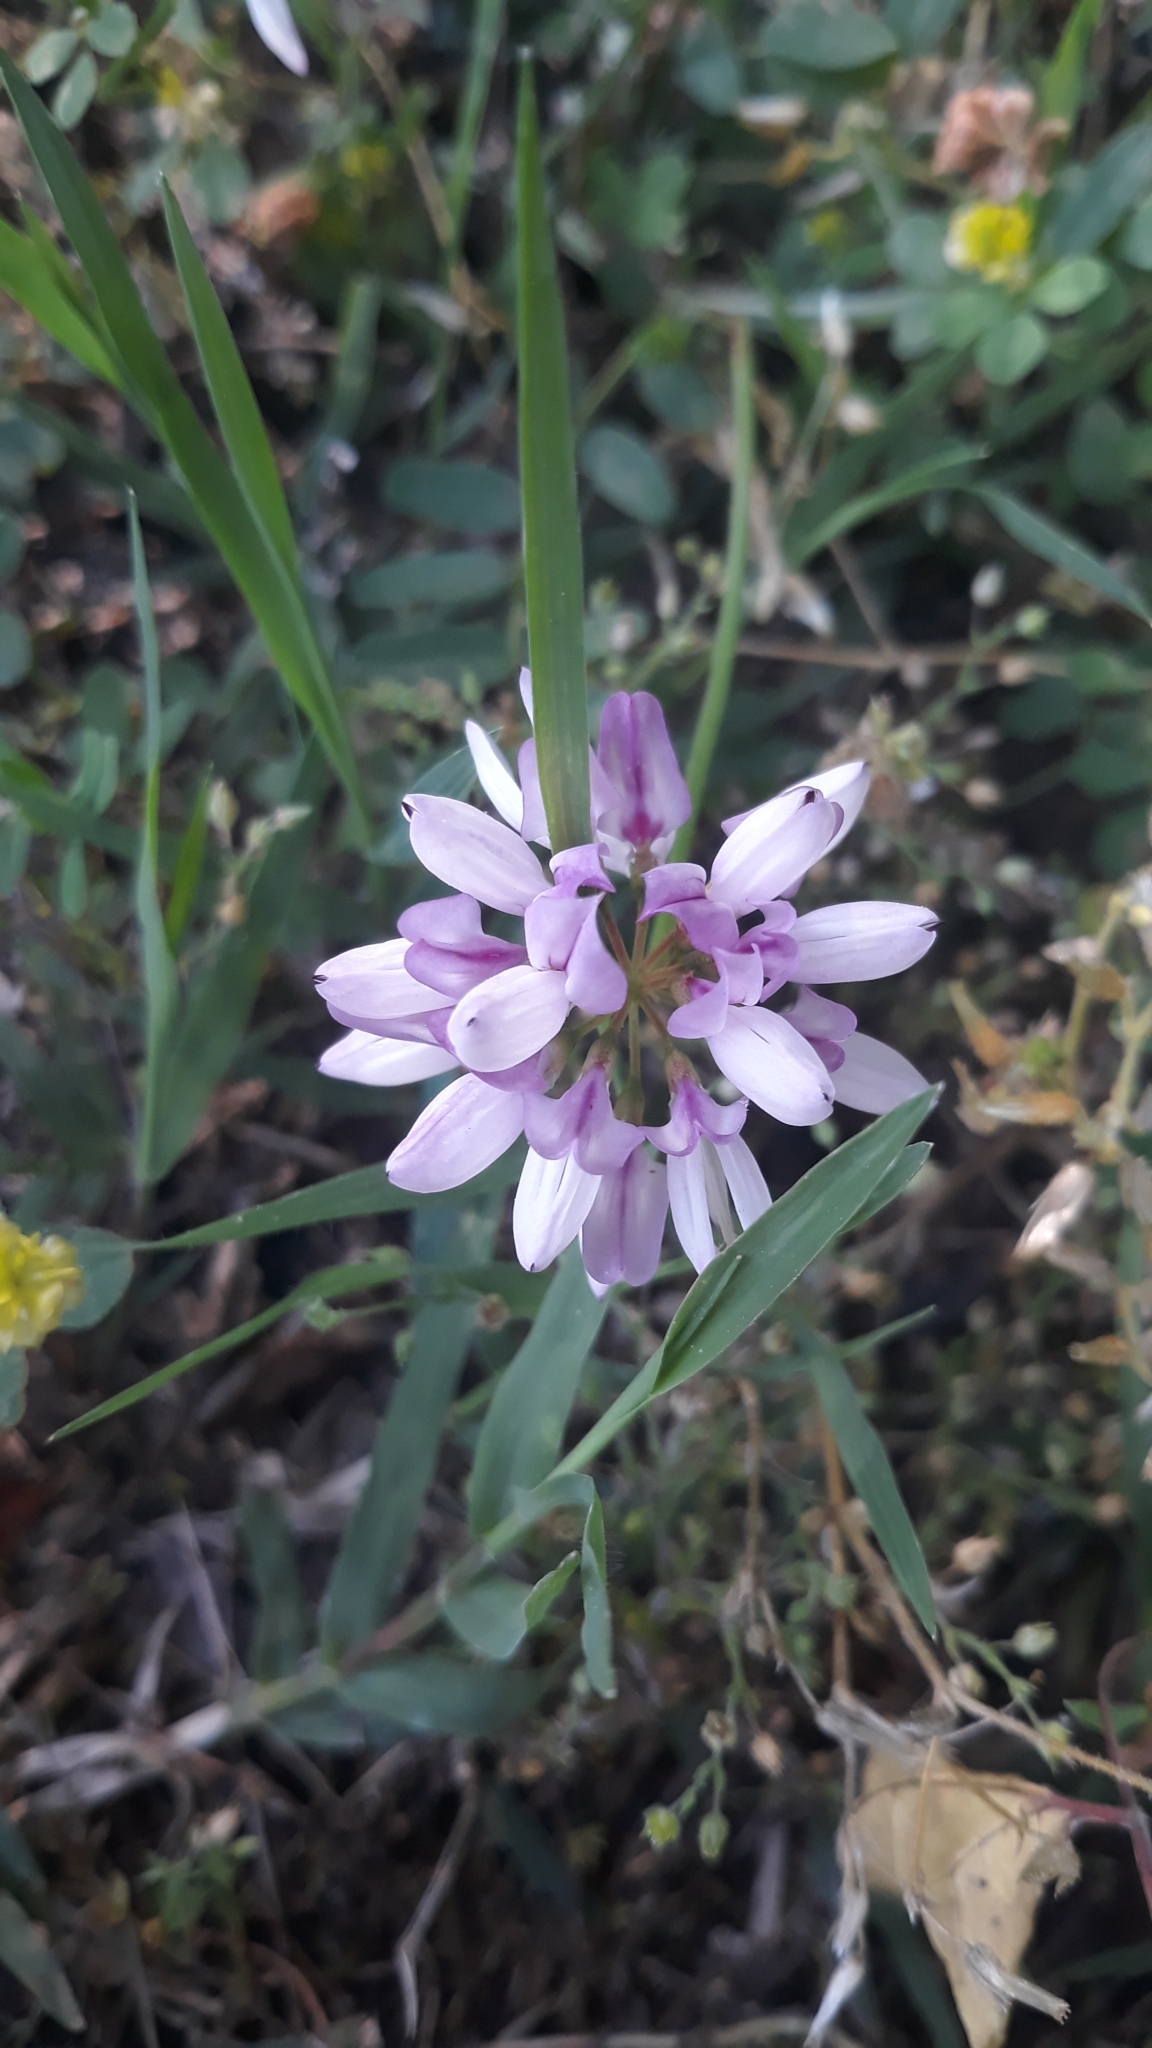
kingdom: Plantae
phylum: Tracheophyta
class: Magnoliopsida
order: Fabales
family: Fabaceae
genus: Coronilla
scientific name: Coronilla varia
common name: Crownvetch
